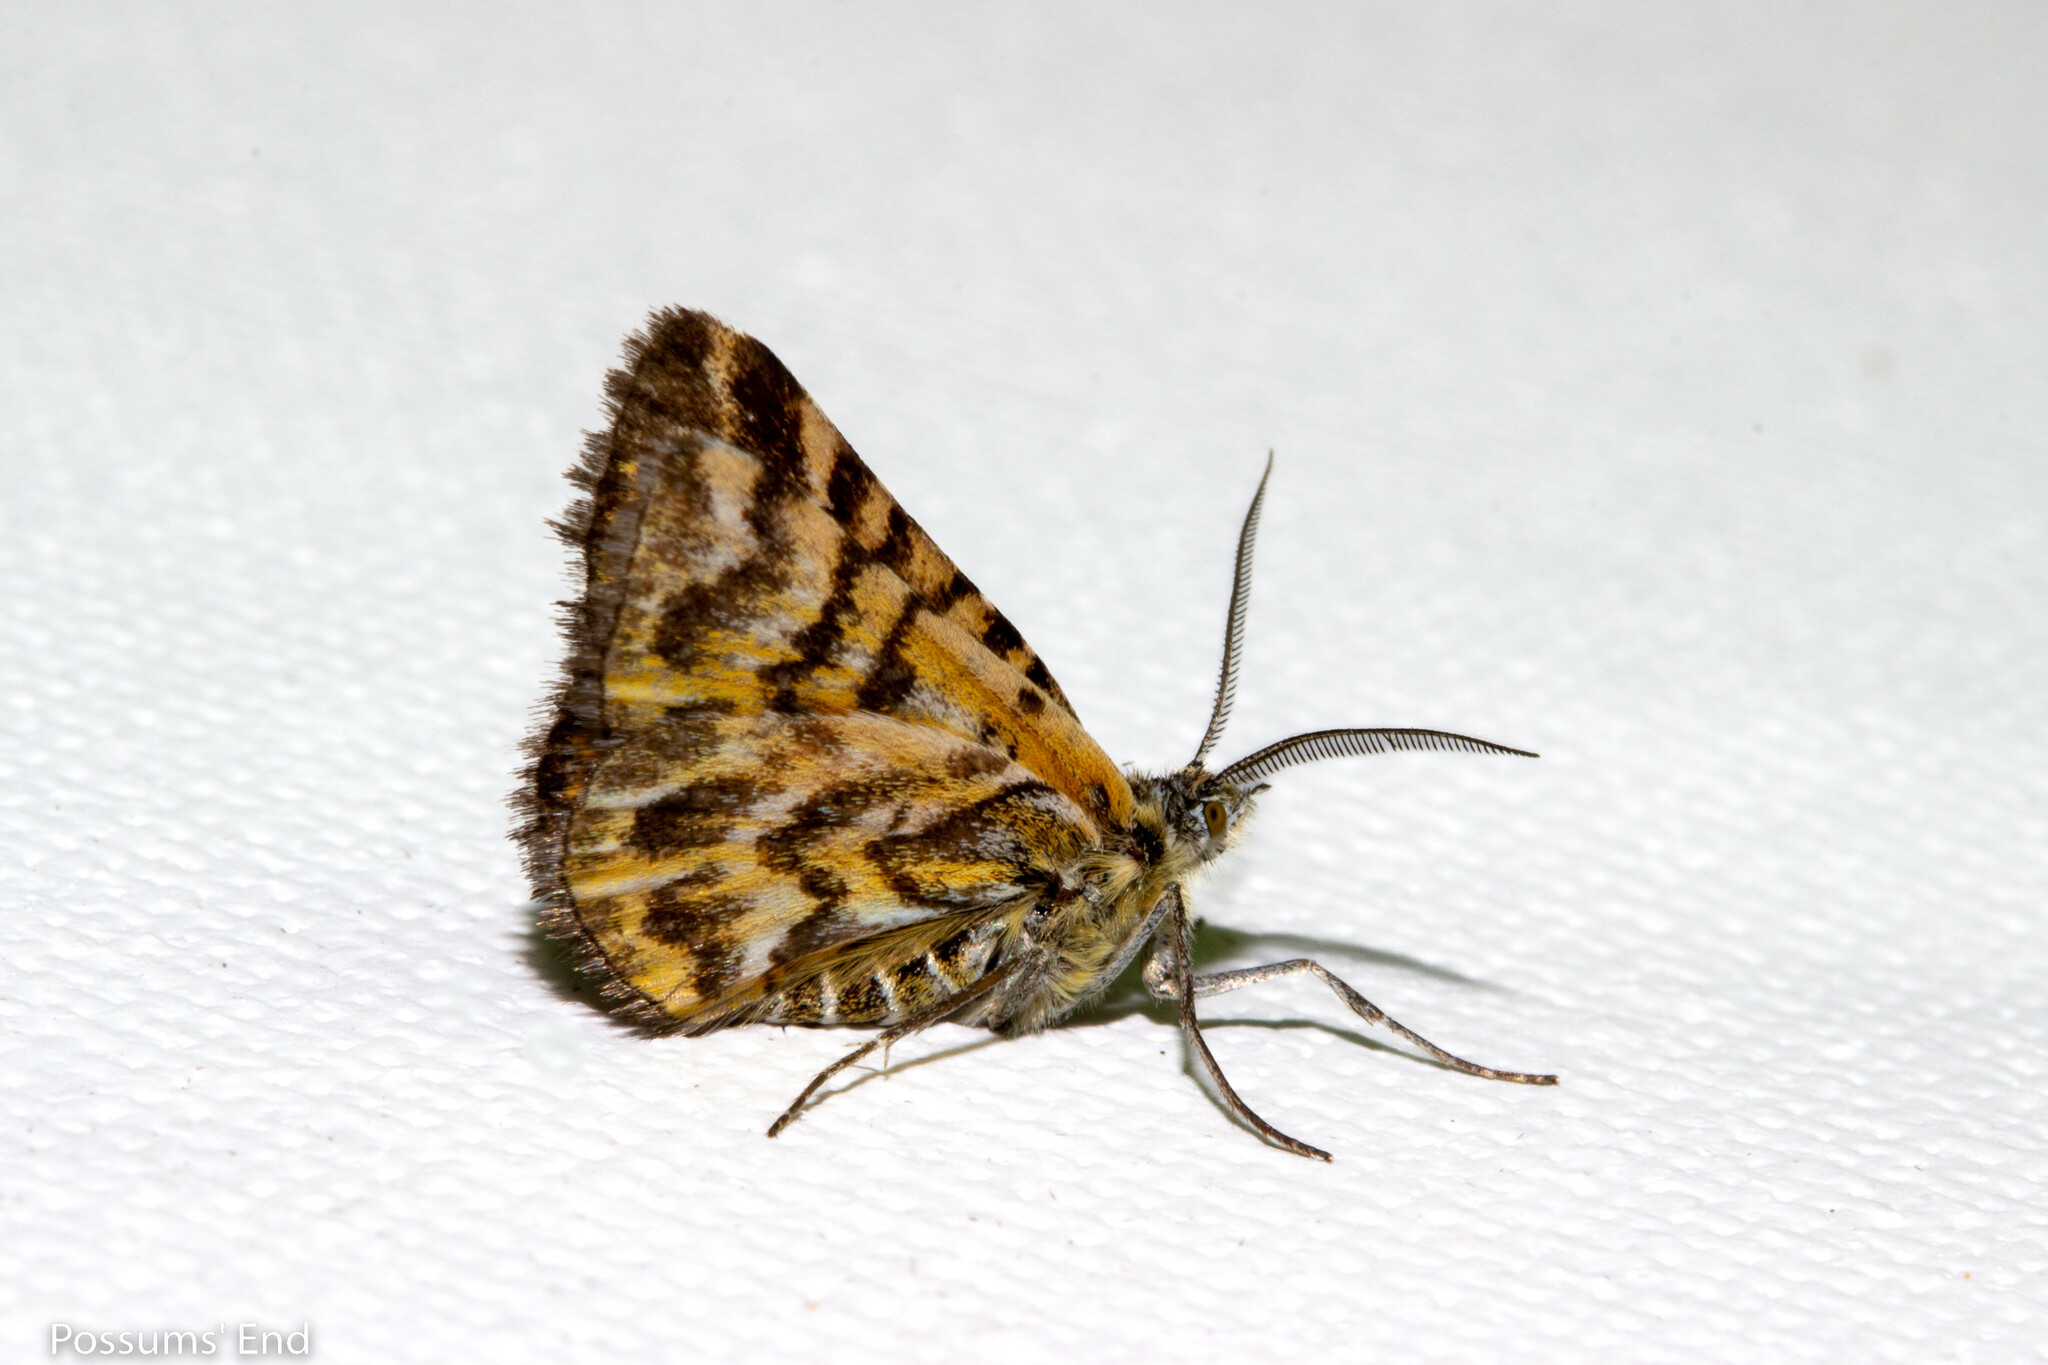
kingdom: Animalia
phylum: Arthropoda
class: Insecta
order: Lepidoptera
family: Geometridae
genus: Notoreas
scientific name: Notoreas
